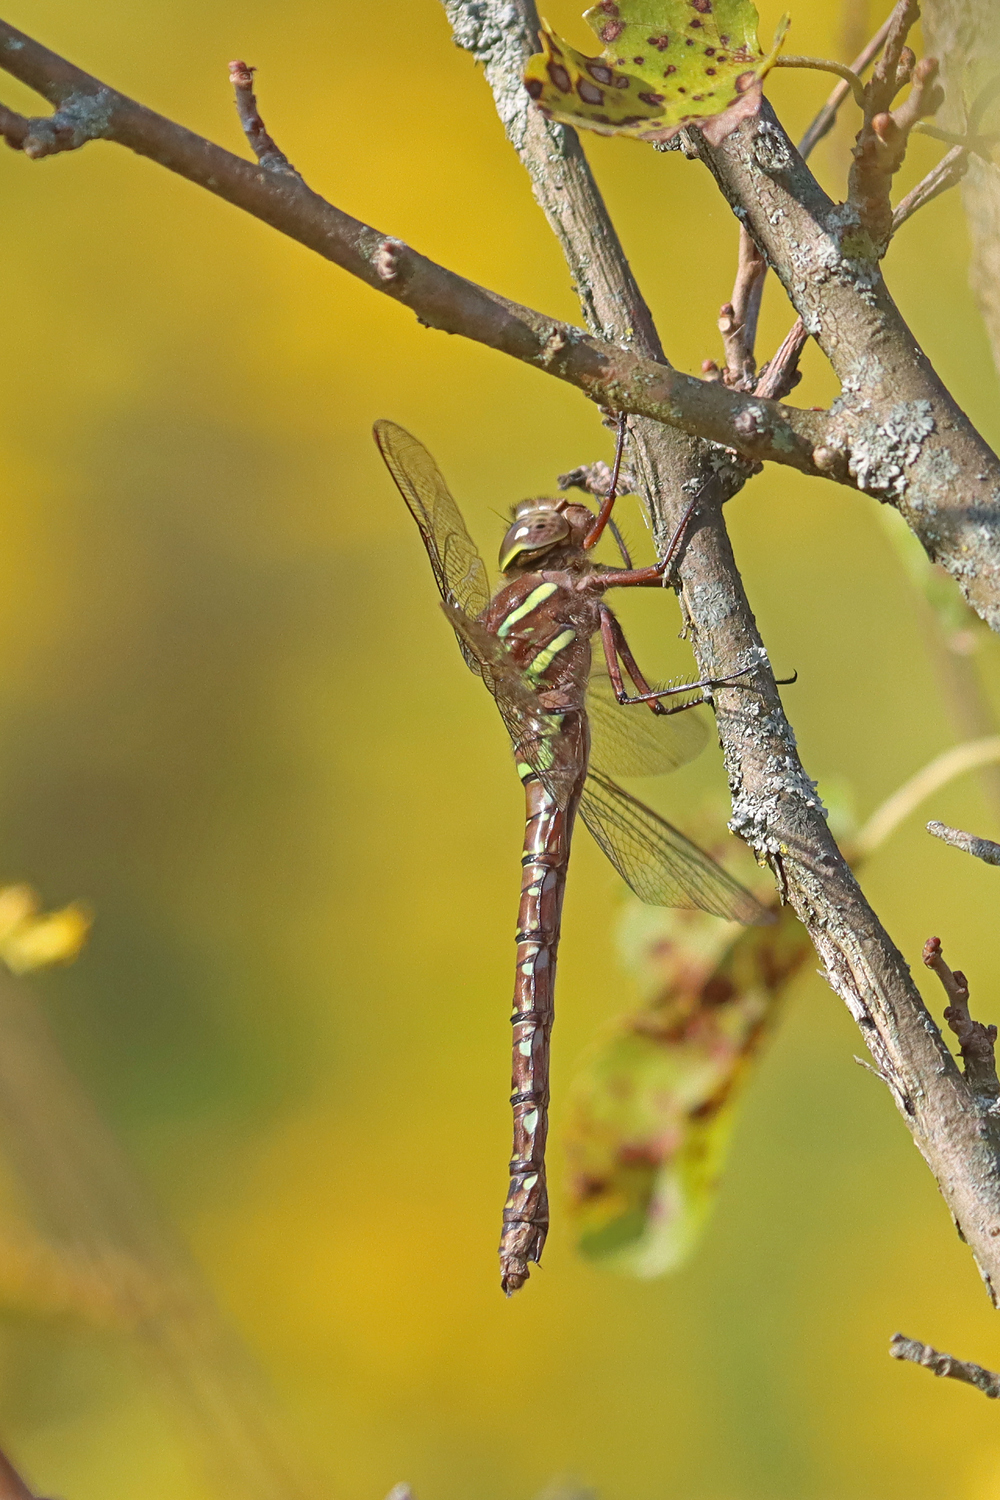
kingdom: Animalia
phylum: Arthropoda
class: Insecta
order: Odonata
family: Aeshnidae
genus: Aeshna
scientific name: Aeshna umbrosa
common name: Shadow darner
